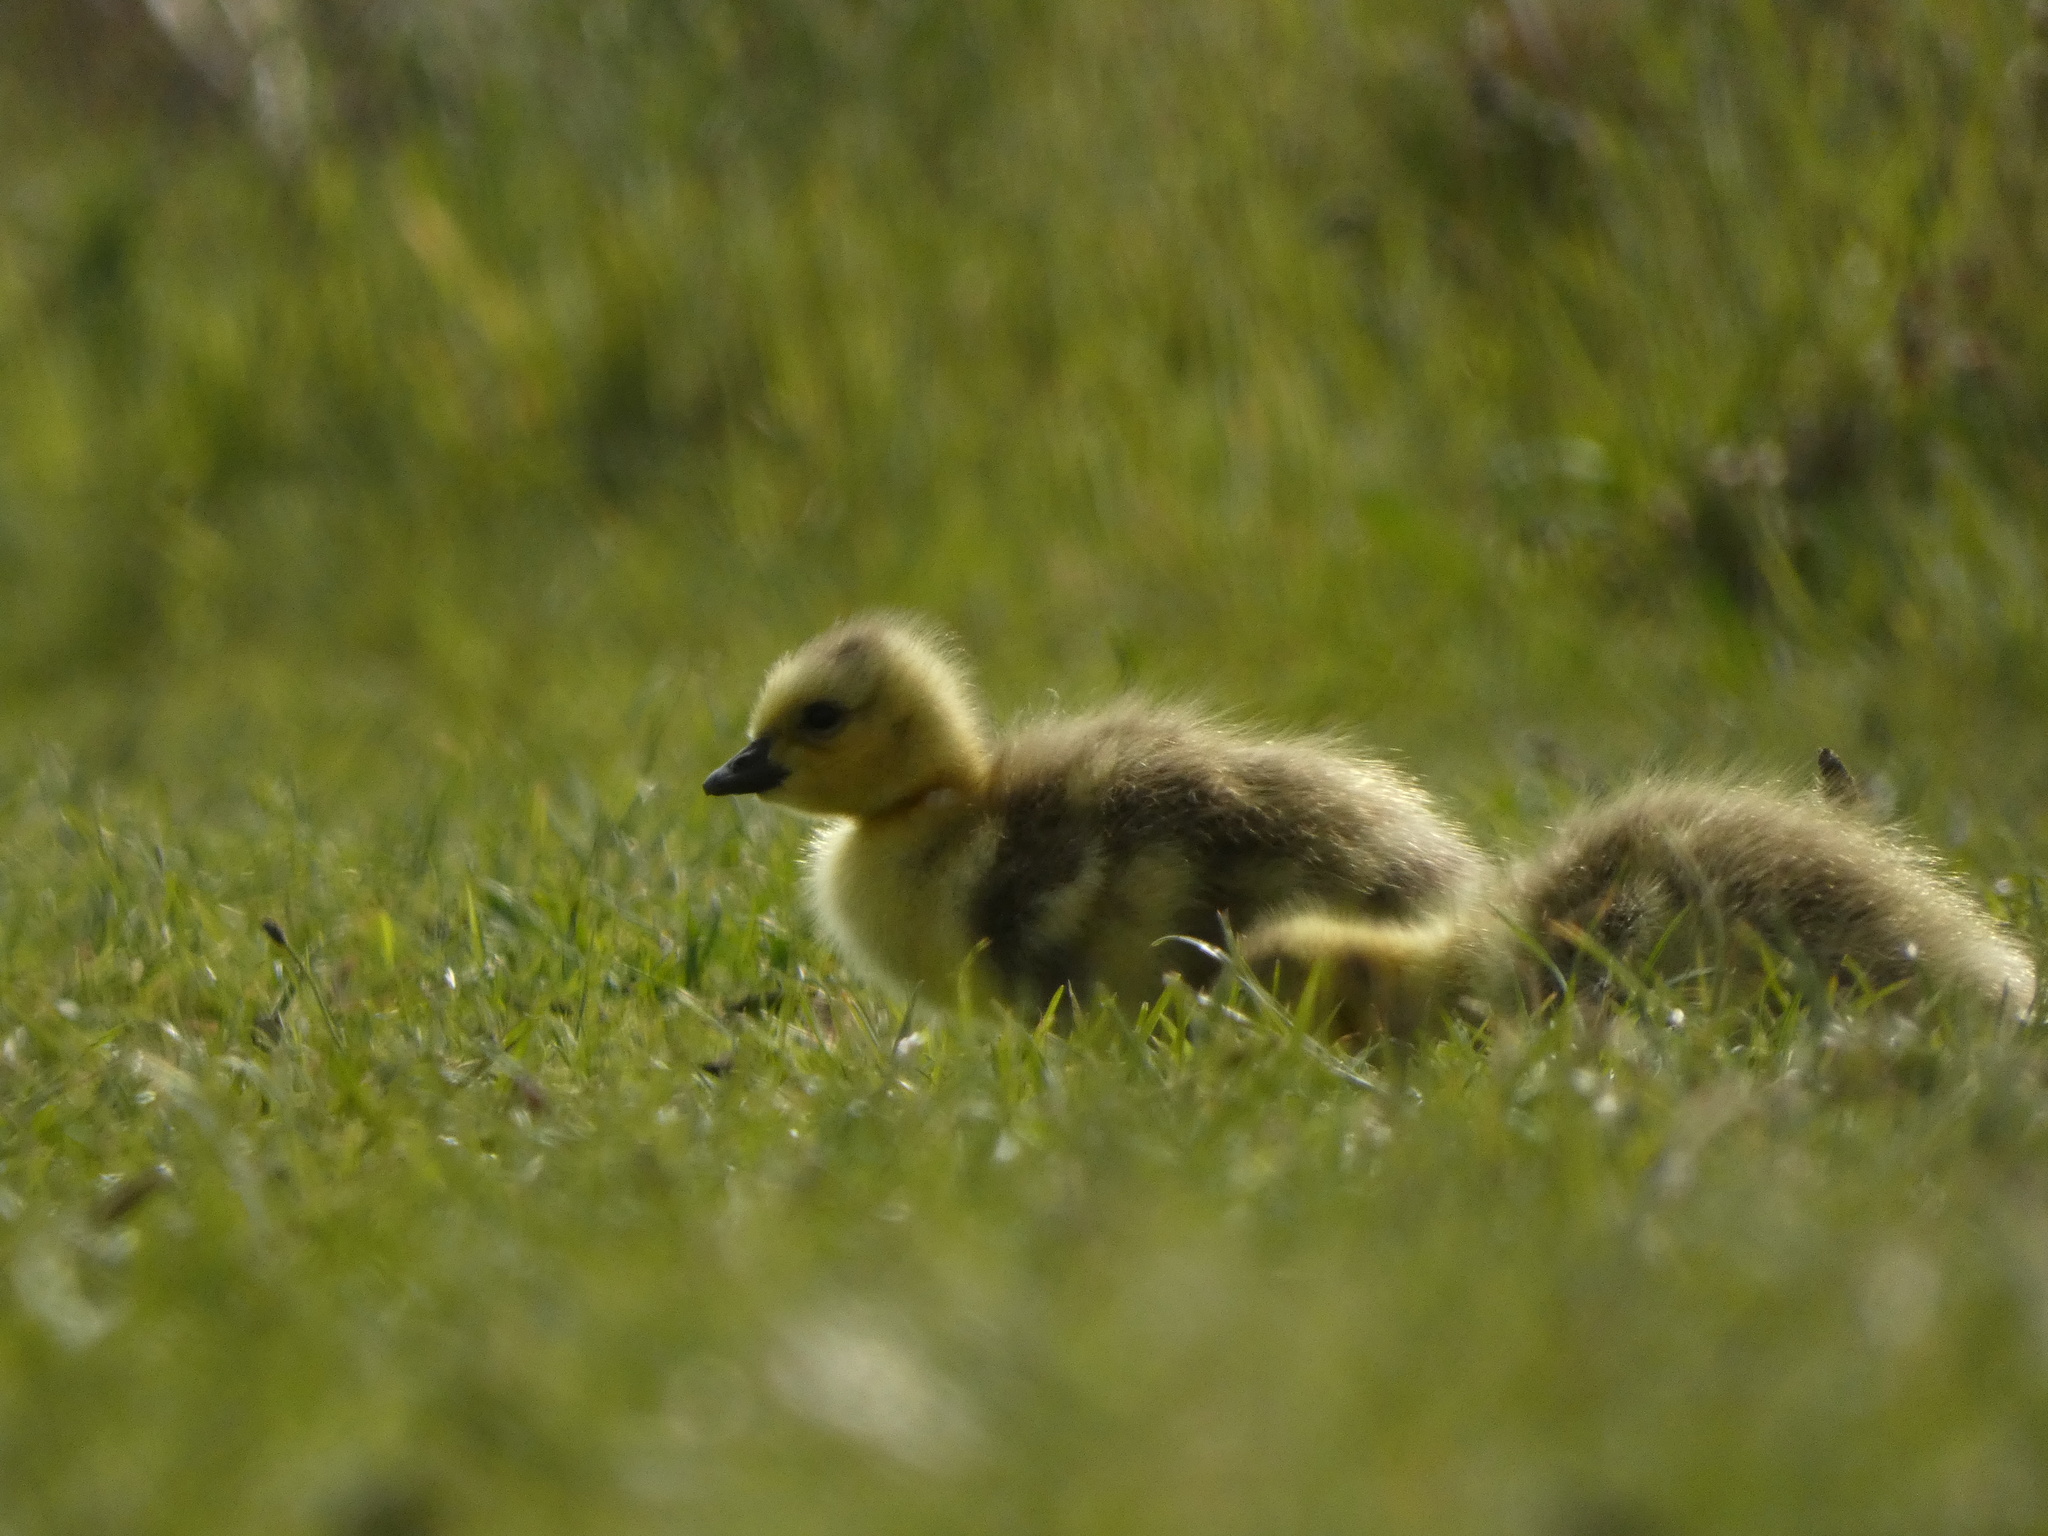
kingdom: Animalia
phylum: Chordata
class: Aves
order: Anseriformes
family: Anatidae
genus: Branta
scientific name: Branta canadensis
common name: Canada goose
